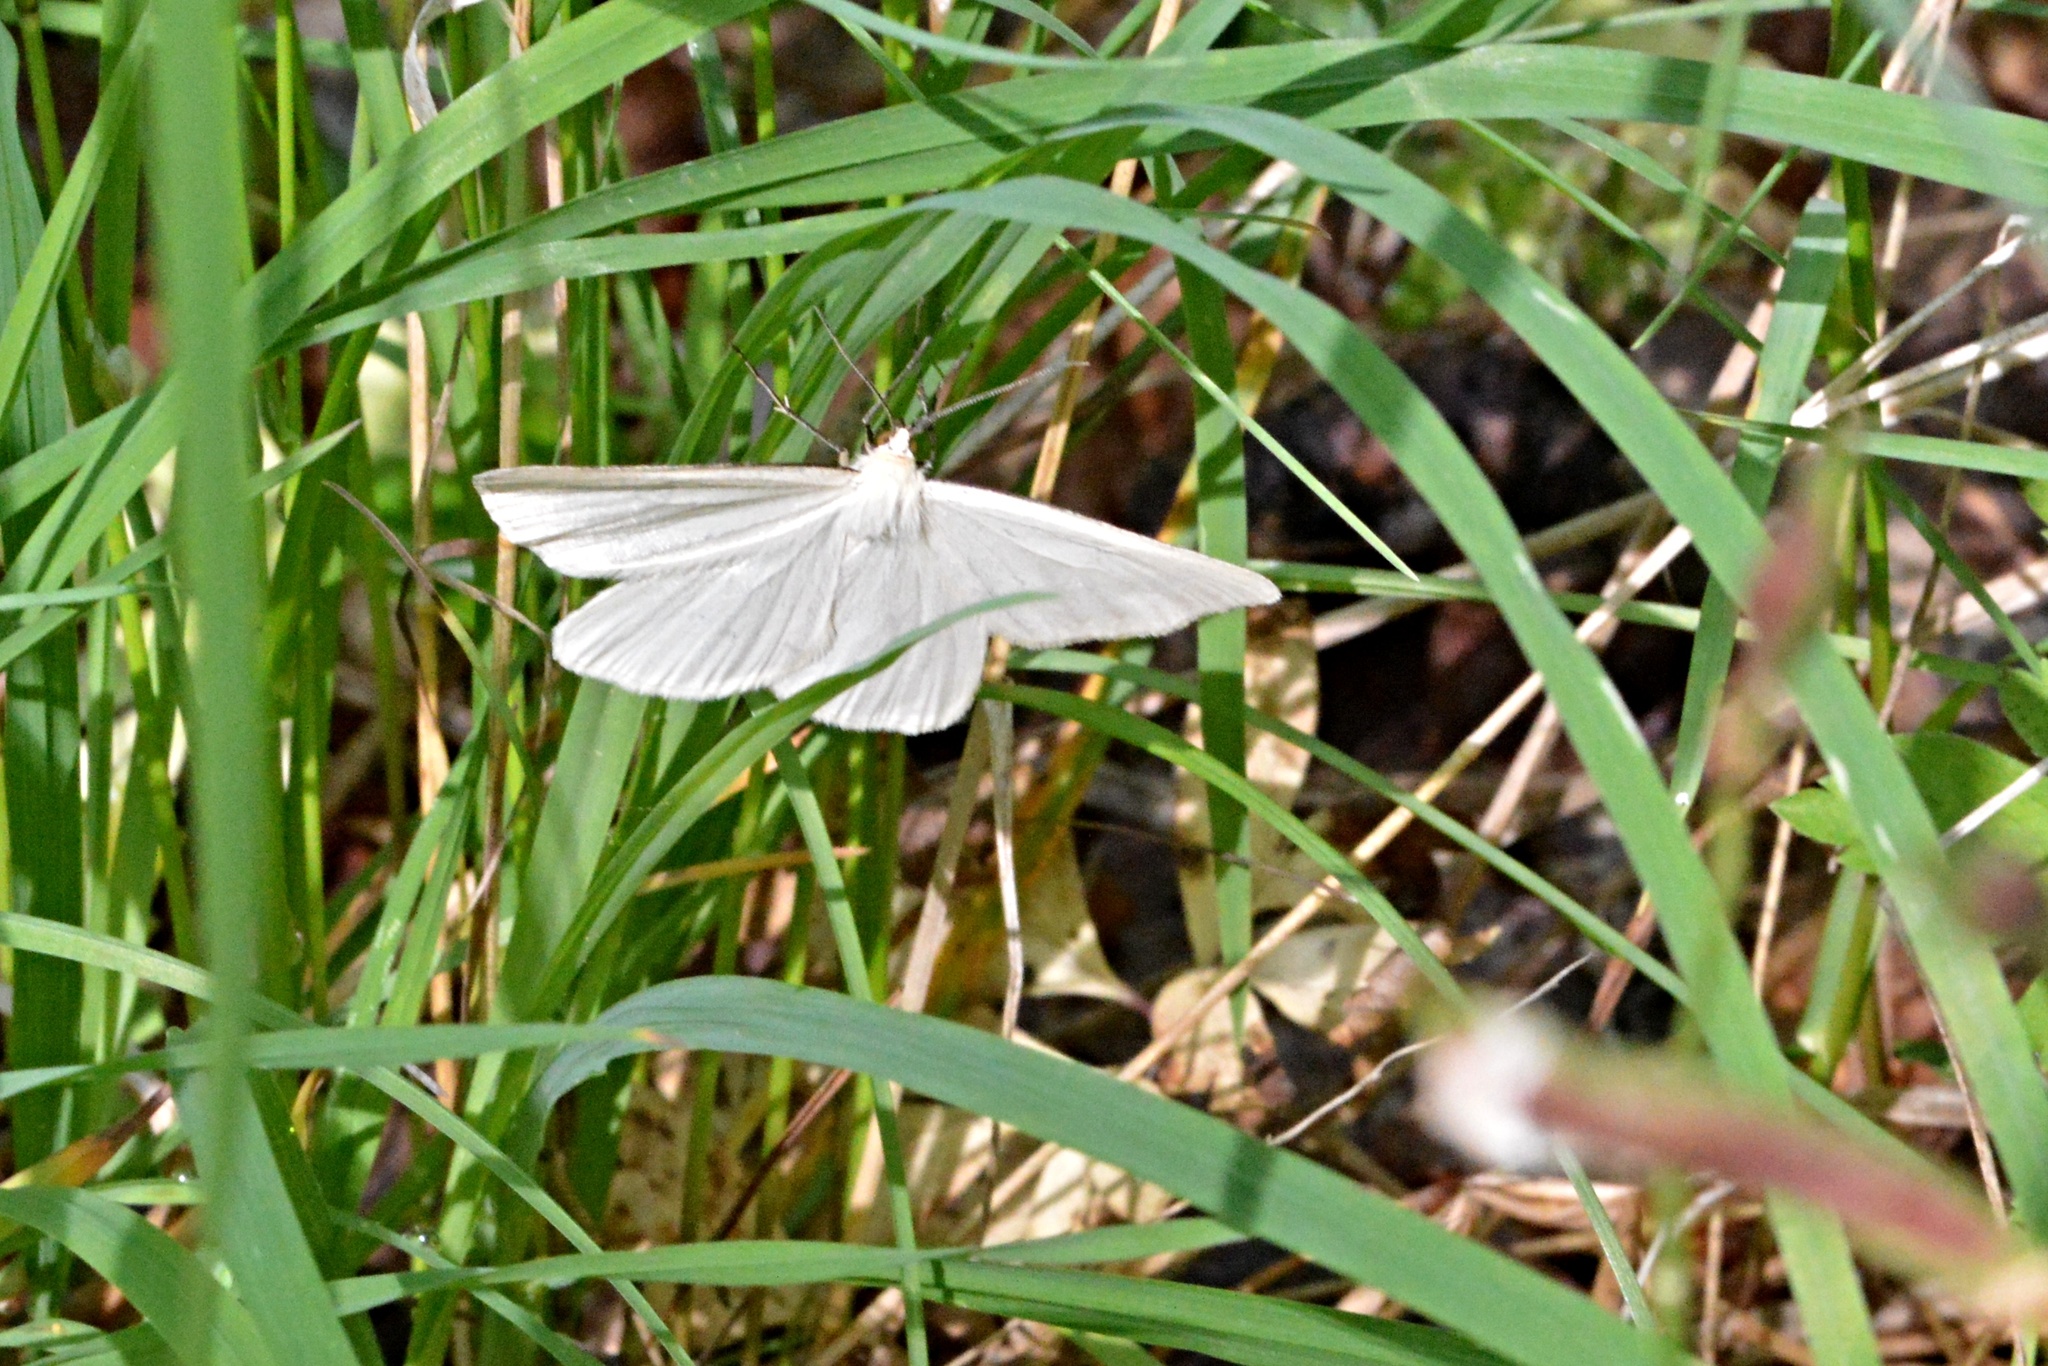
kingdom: Animalia
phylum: Arthropoda
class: Insecta
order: Lepidoptera
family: Geometridae
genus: Siona
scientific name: Siona lineata
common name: Black-veined moth
